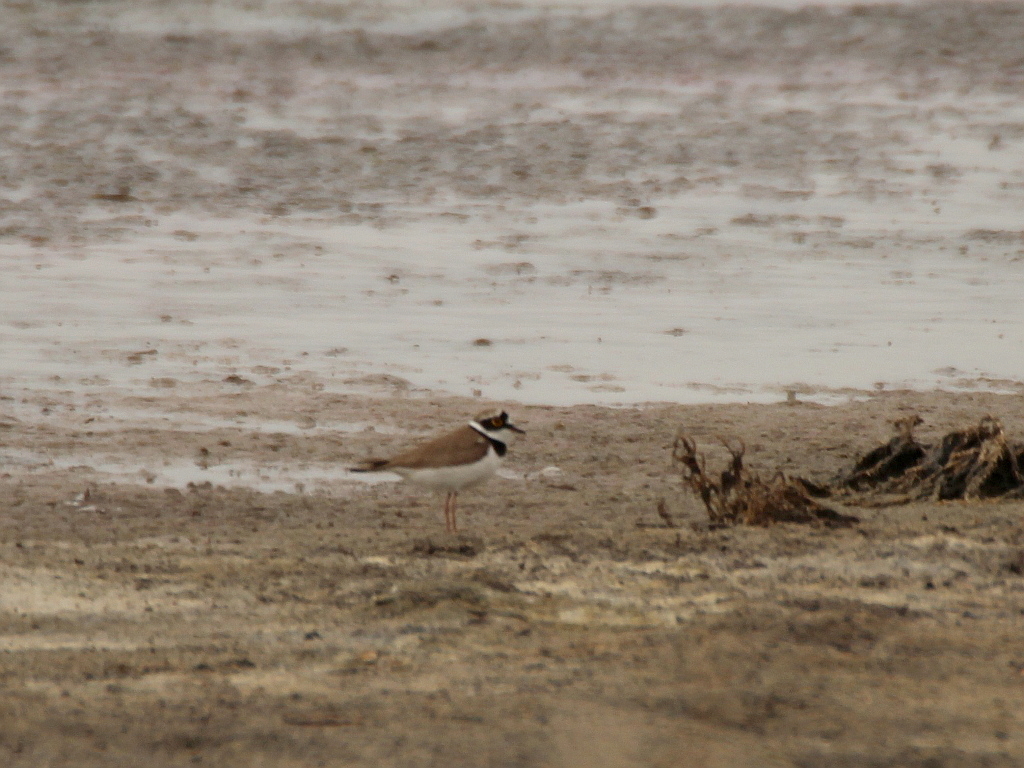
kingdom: Animalia
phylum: Chordata
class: Aves
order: Charadriiformes
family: Charadriidae
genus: Charadrius
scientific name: Charadrius dubius
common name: Little ringed plover
